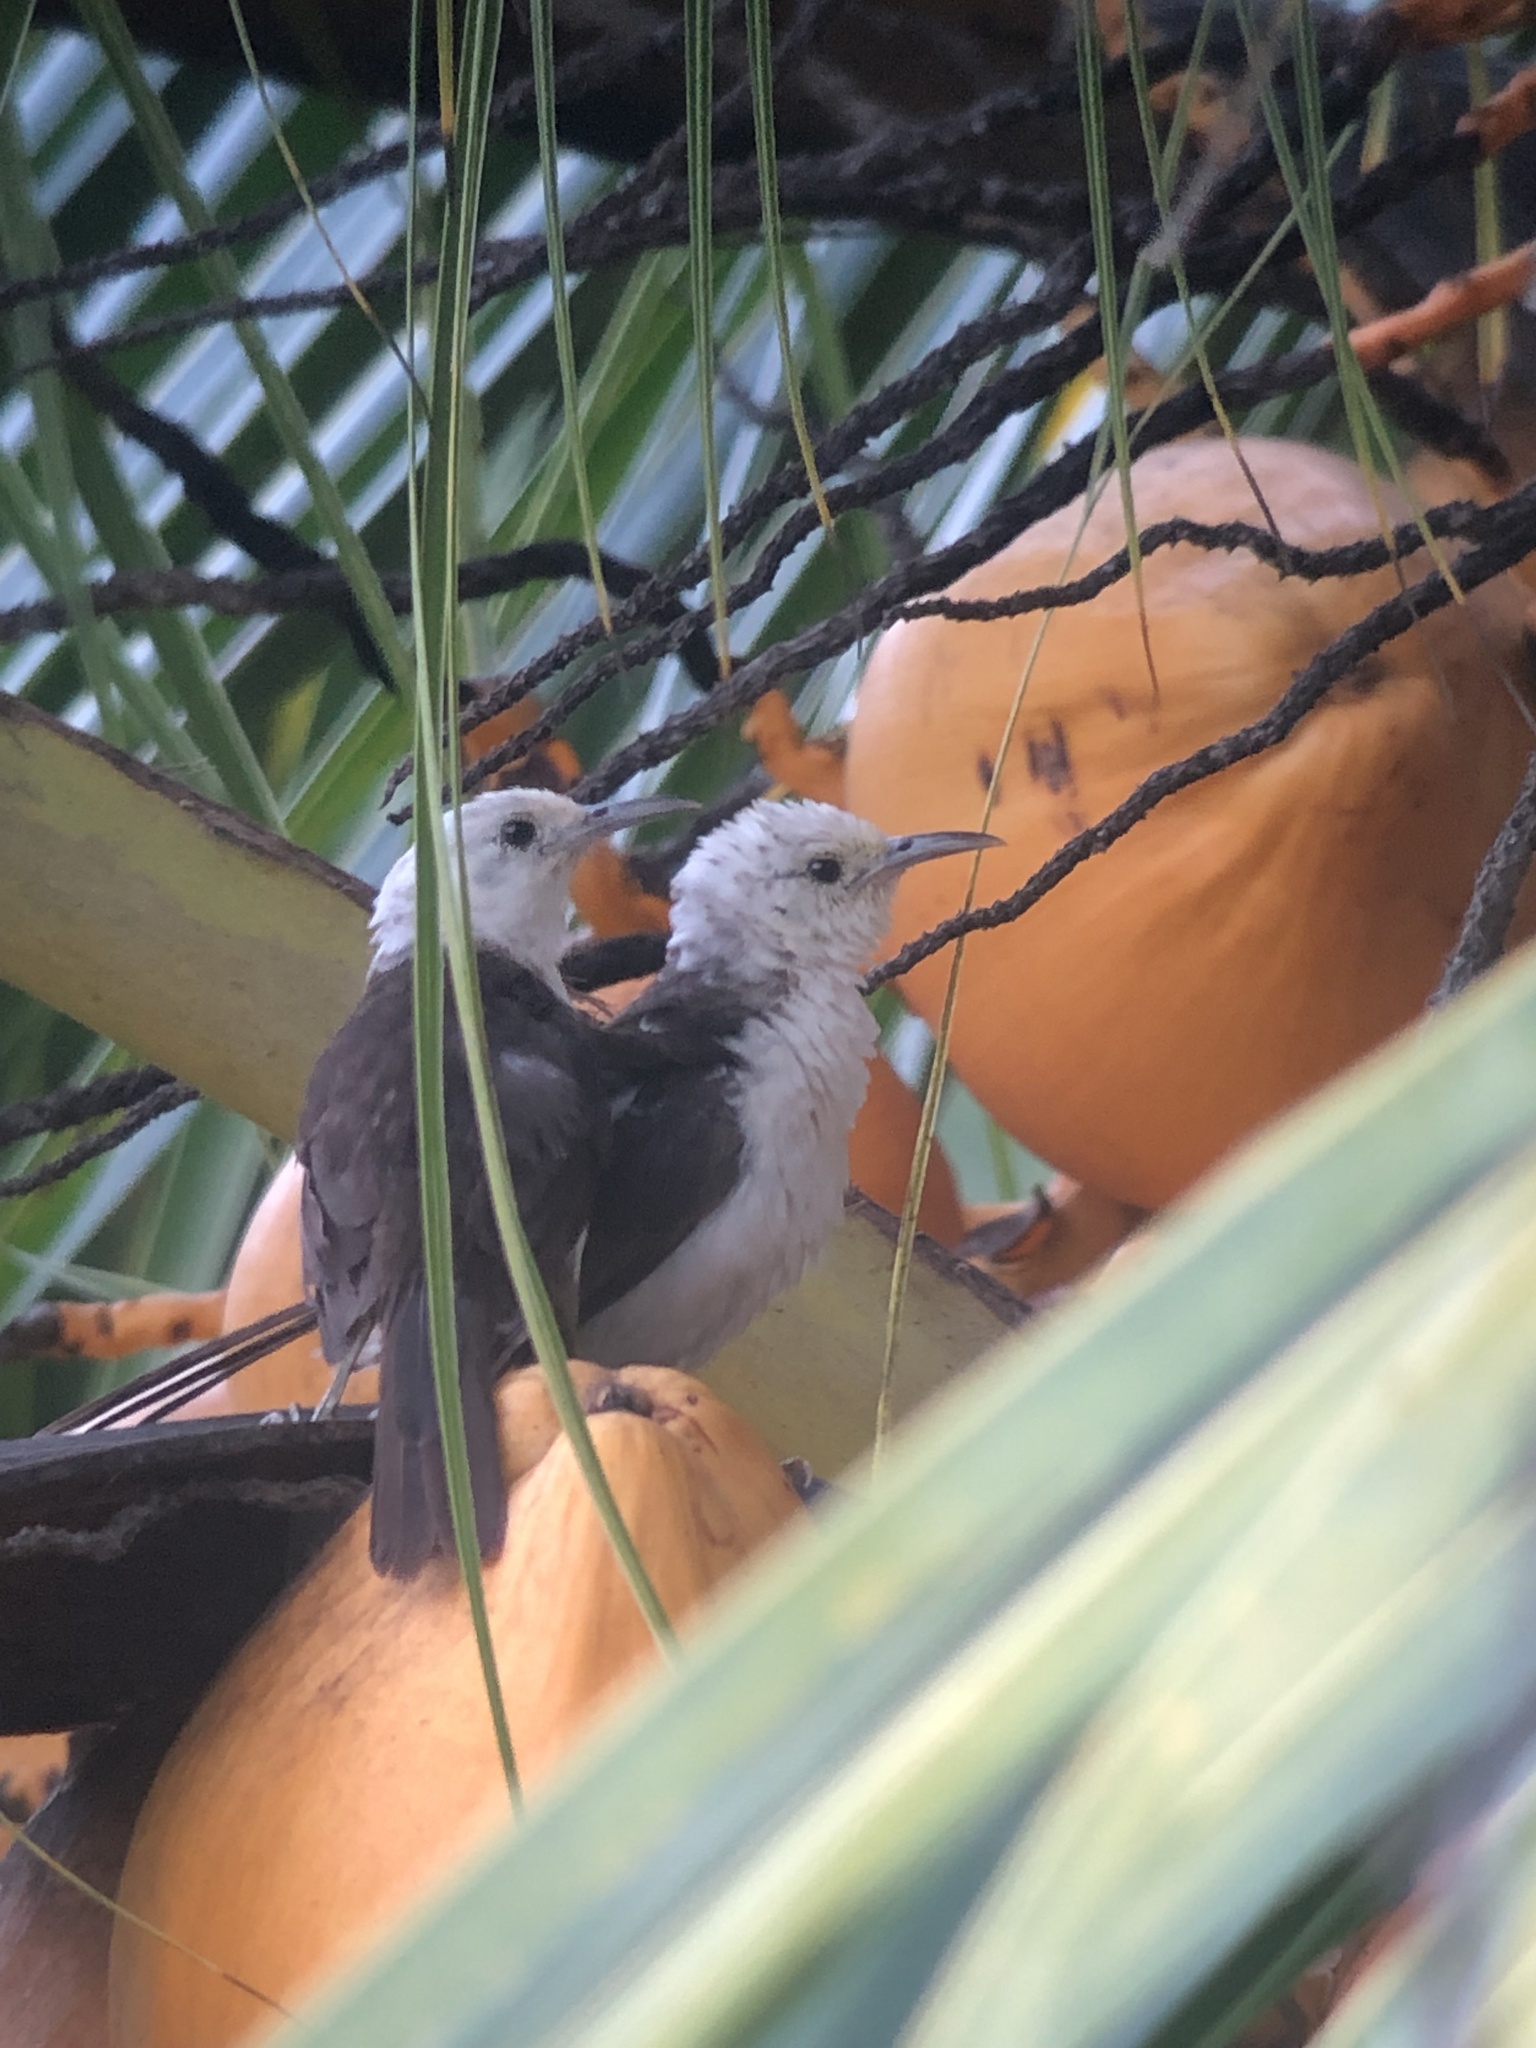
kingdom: Animalia
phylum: Chordata
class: Aves
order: Passeriformes
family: Troglodytidae
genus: Campylorhynchus
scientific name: Campylorhynchus albobrunneus
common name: White-headed wren
